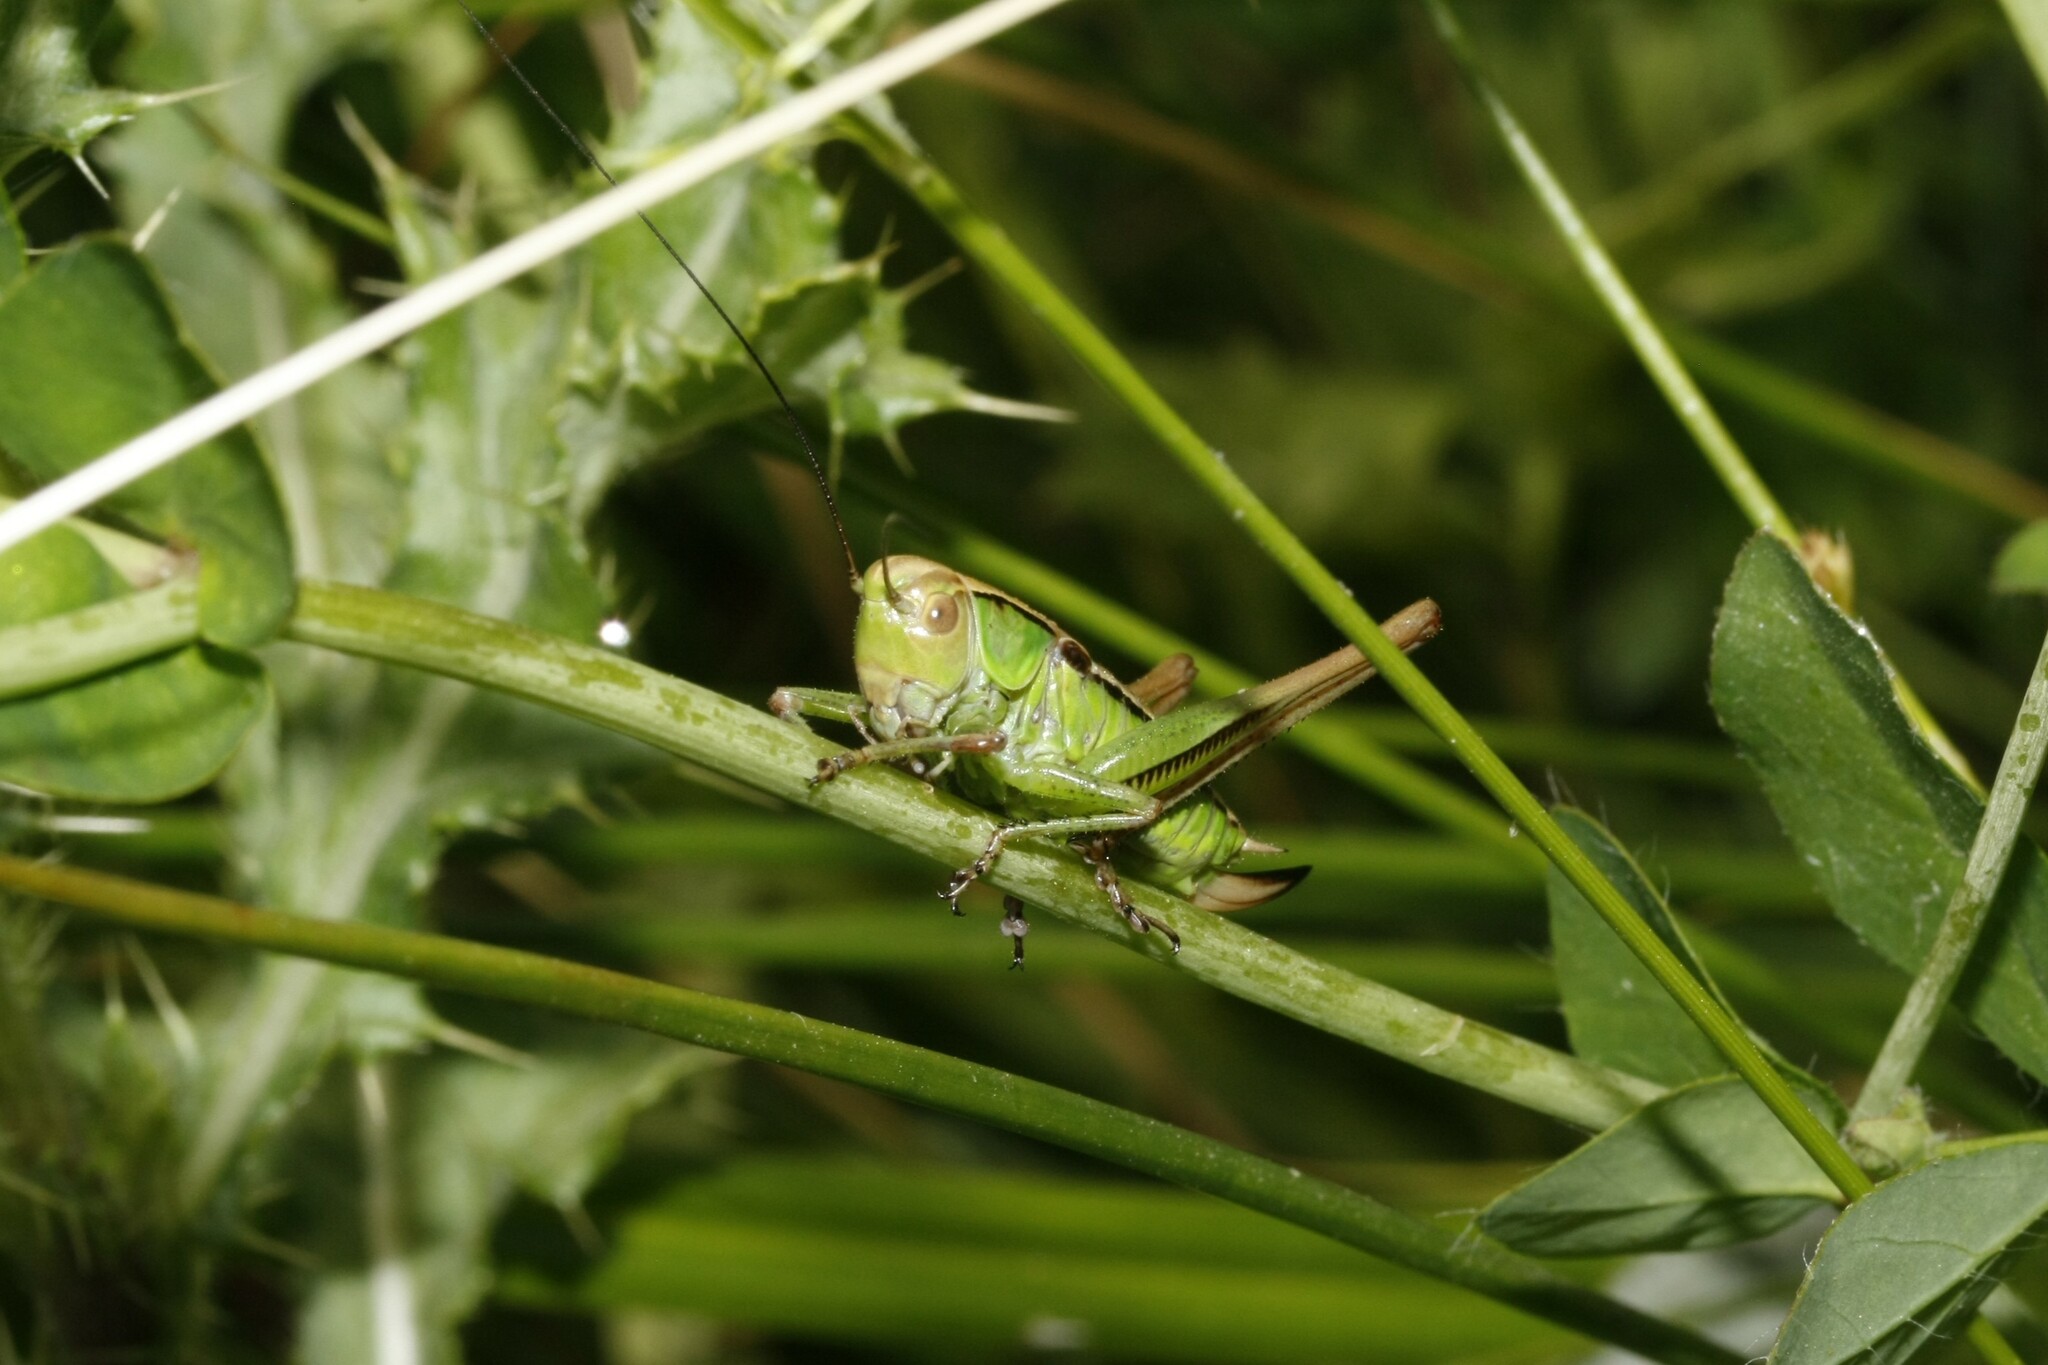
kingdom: Animalia
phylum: Arthropoda
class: Insecta
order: Orthoptera
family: Tettigoniidae
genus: Roeseliana
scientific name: Roeseliana roeselii
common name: Roesel's bush cricket
